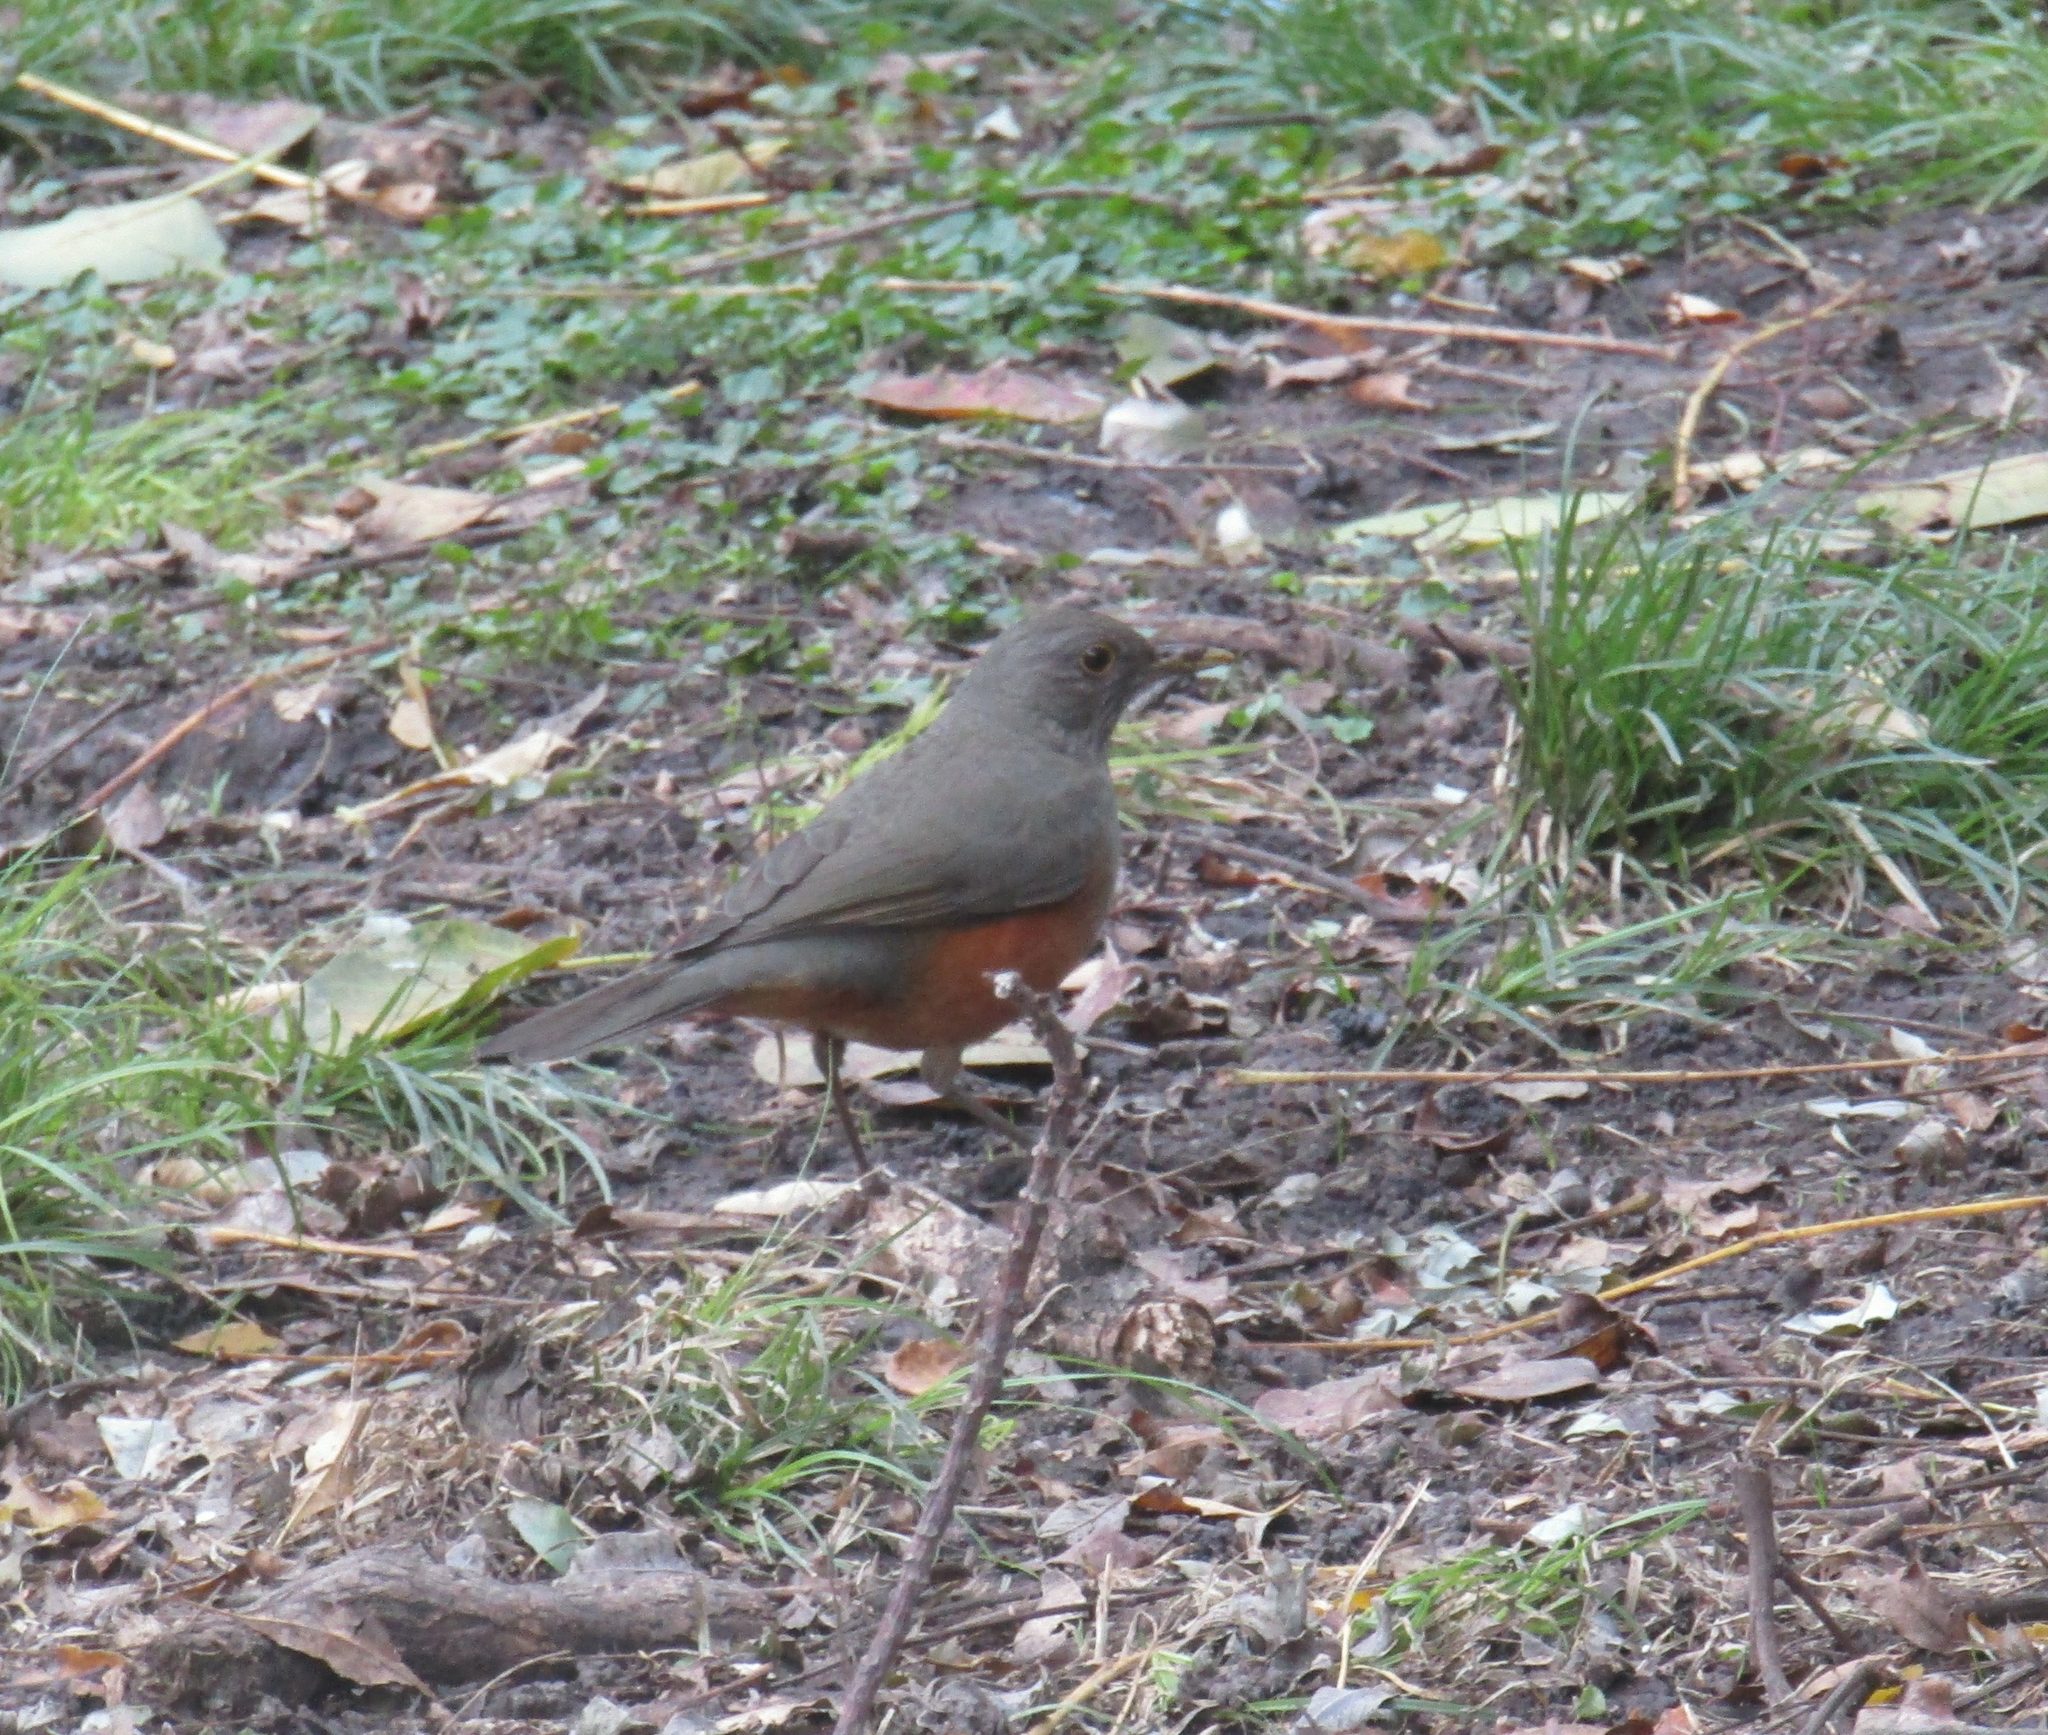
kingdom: Animalia
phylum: Chordata
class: Aves
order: Passeriformes
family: Turdidae
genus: Turdus
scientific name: Turdus rufiventris
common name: Rufous-bellied thrush
